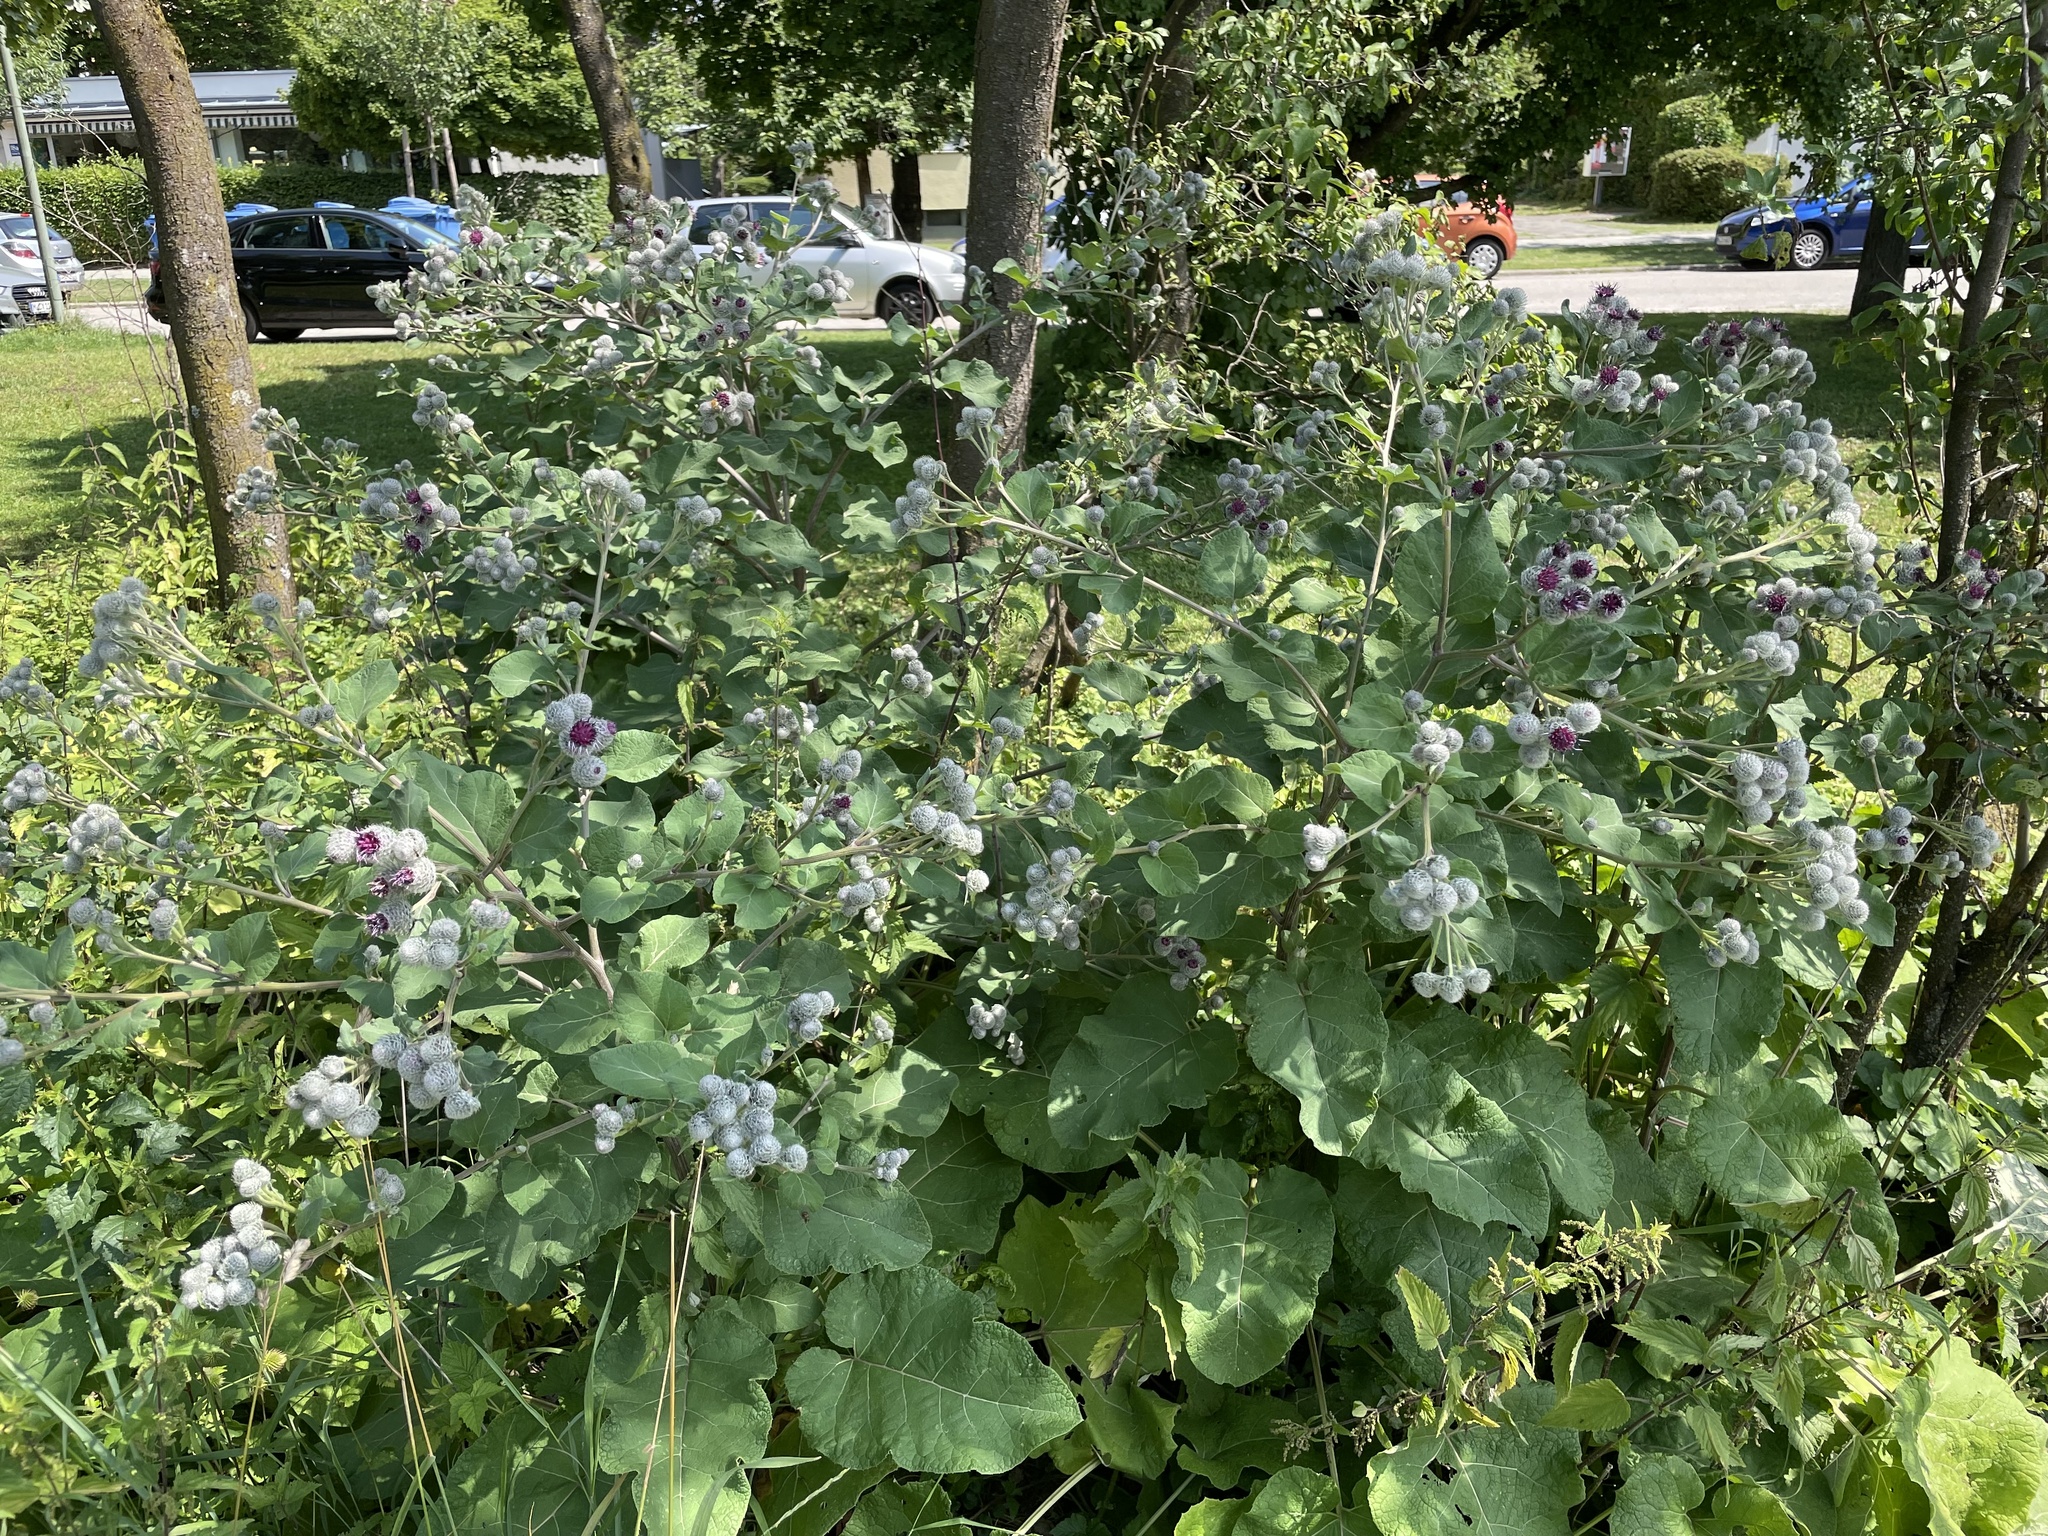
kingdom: Plantae
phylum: Tracheophyta
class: Magnoliopsida
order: Asterales
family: Asteraceae
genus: Arctium
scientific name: Arctium tomentosum
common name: Woolly burdock
